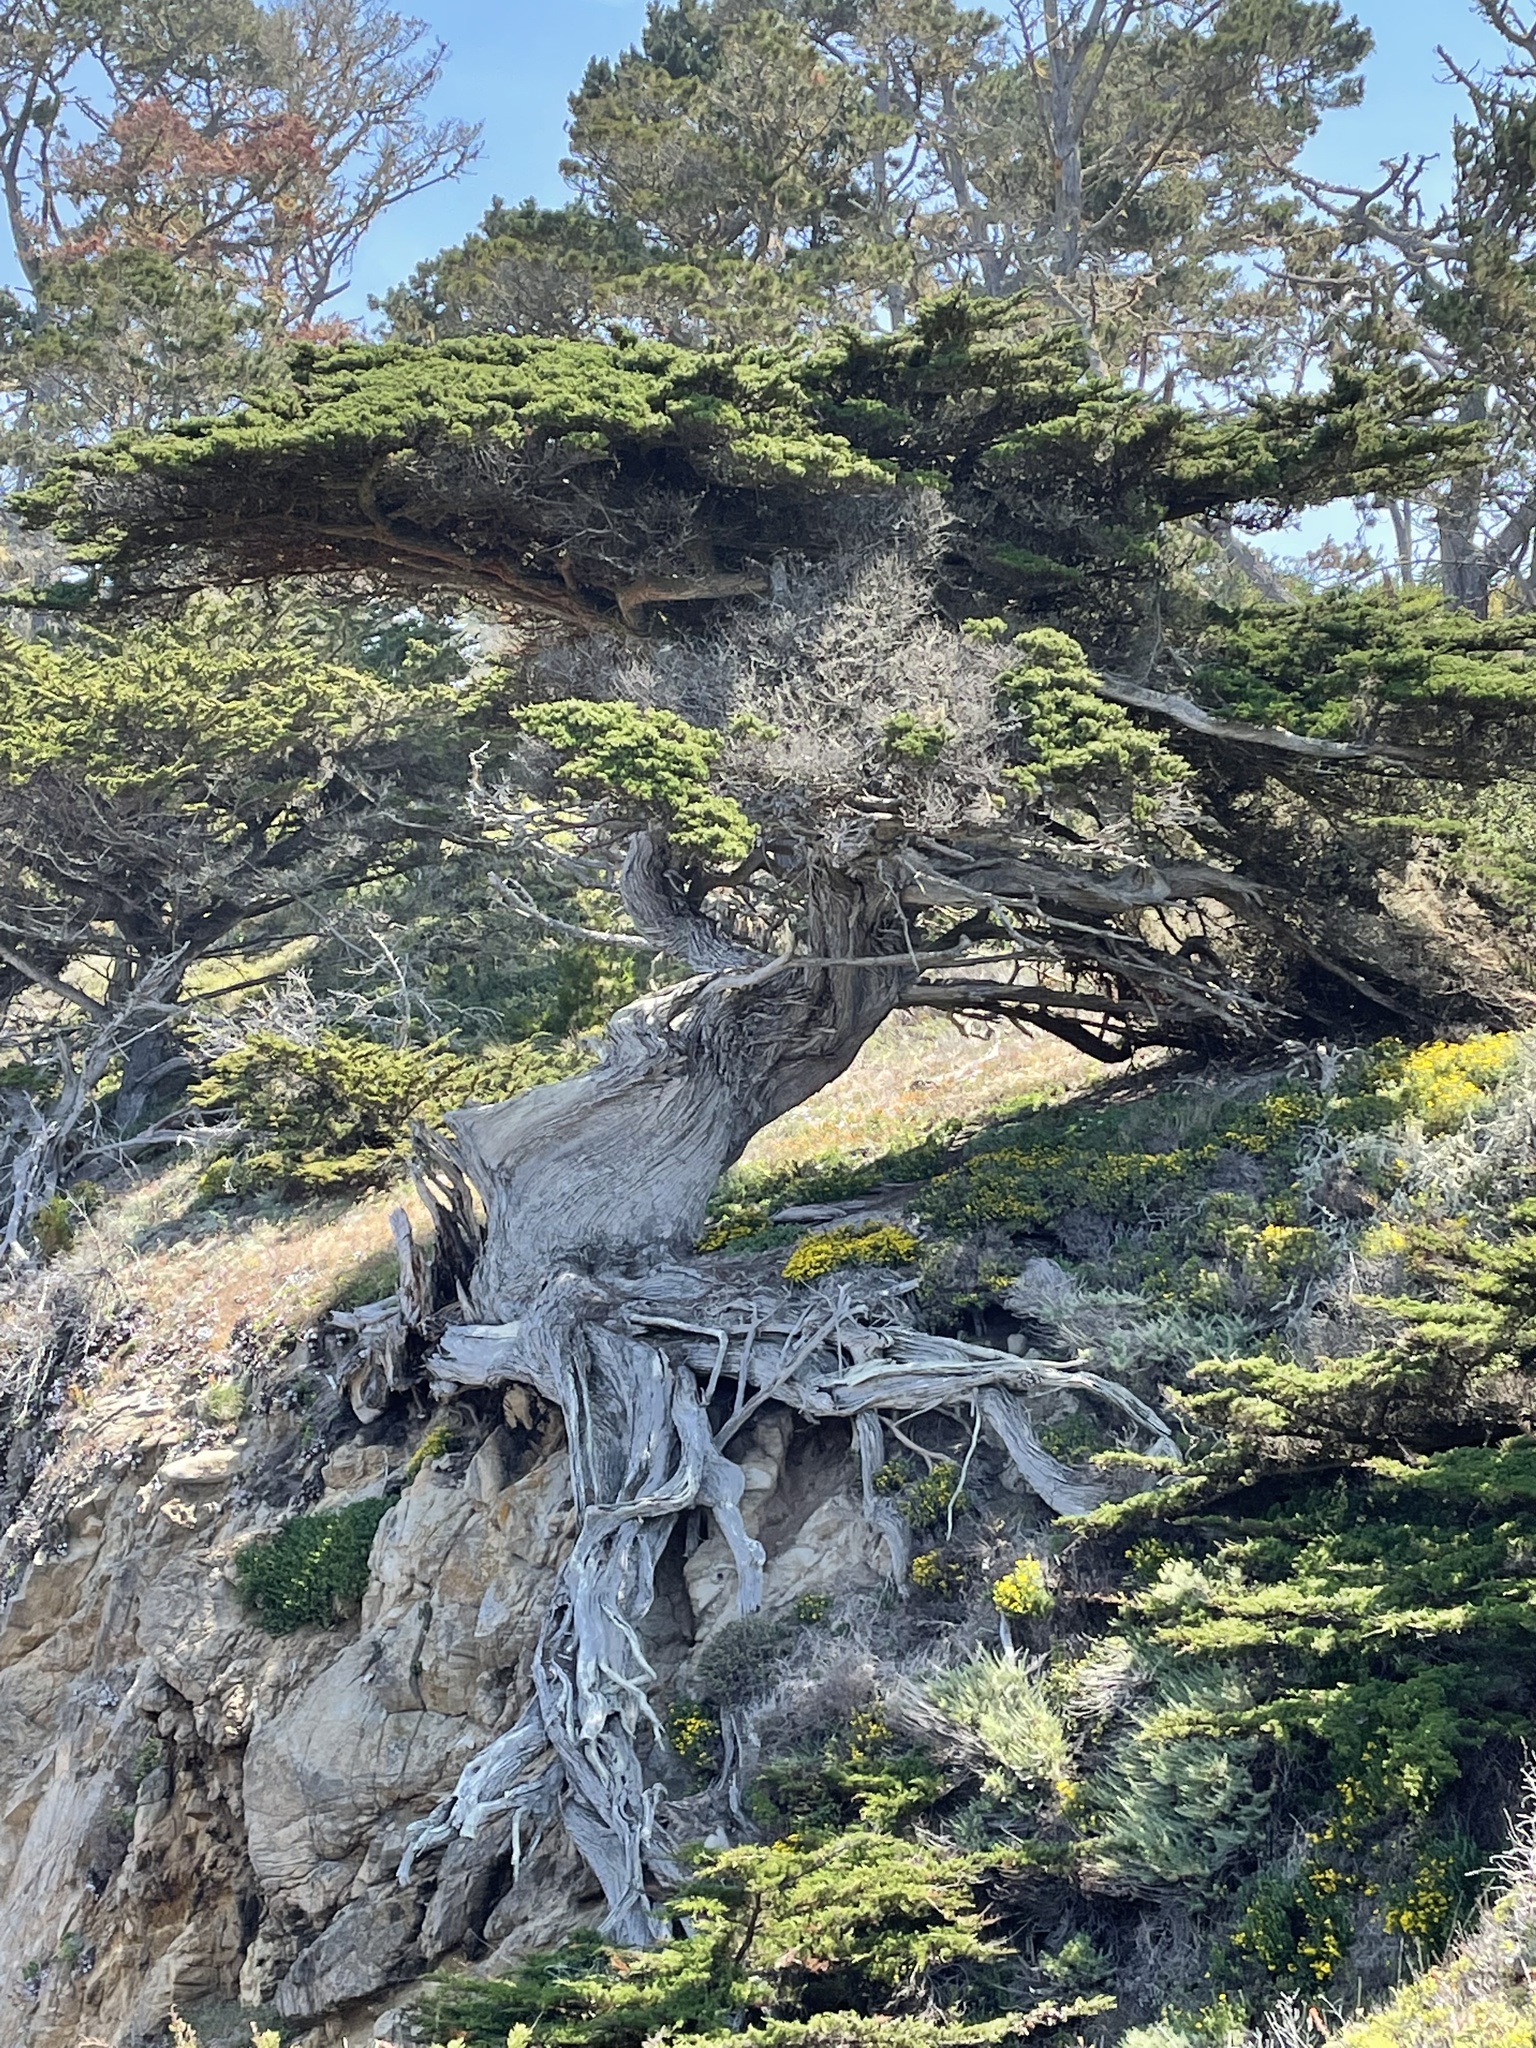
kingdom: Plantae
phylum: Tracheophyta
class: Pinopsida
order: Pinales
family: Cupressaceae
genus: Cupressus
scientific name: Cupressus macrocarpa
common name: Monterey cypress
